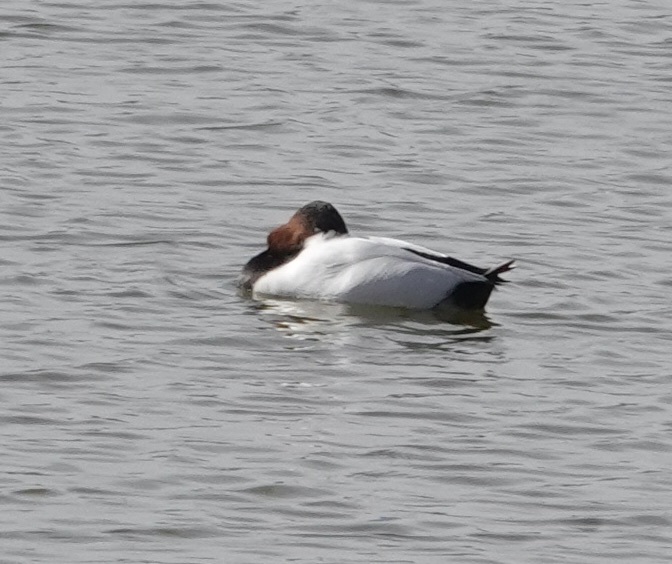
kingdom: Animalia
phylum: Chordata
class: Aves
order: Anseriformes
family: Anatidae
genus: Aythya
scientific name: Aythya valisineria
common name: Canvasback
